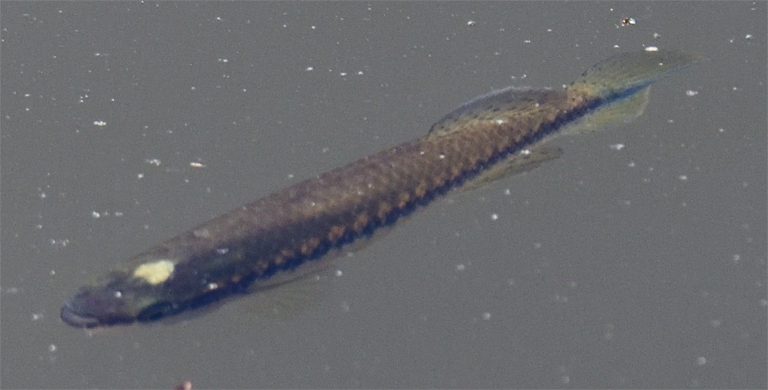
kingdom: Animalia
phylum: Chordata
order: Cyprinodontiformes
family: Fundulidae
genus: Fundulus
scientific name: Fundulus notatus
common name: Blackstripe topminnow
